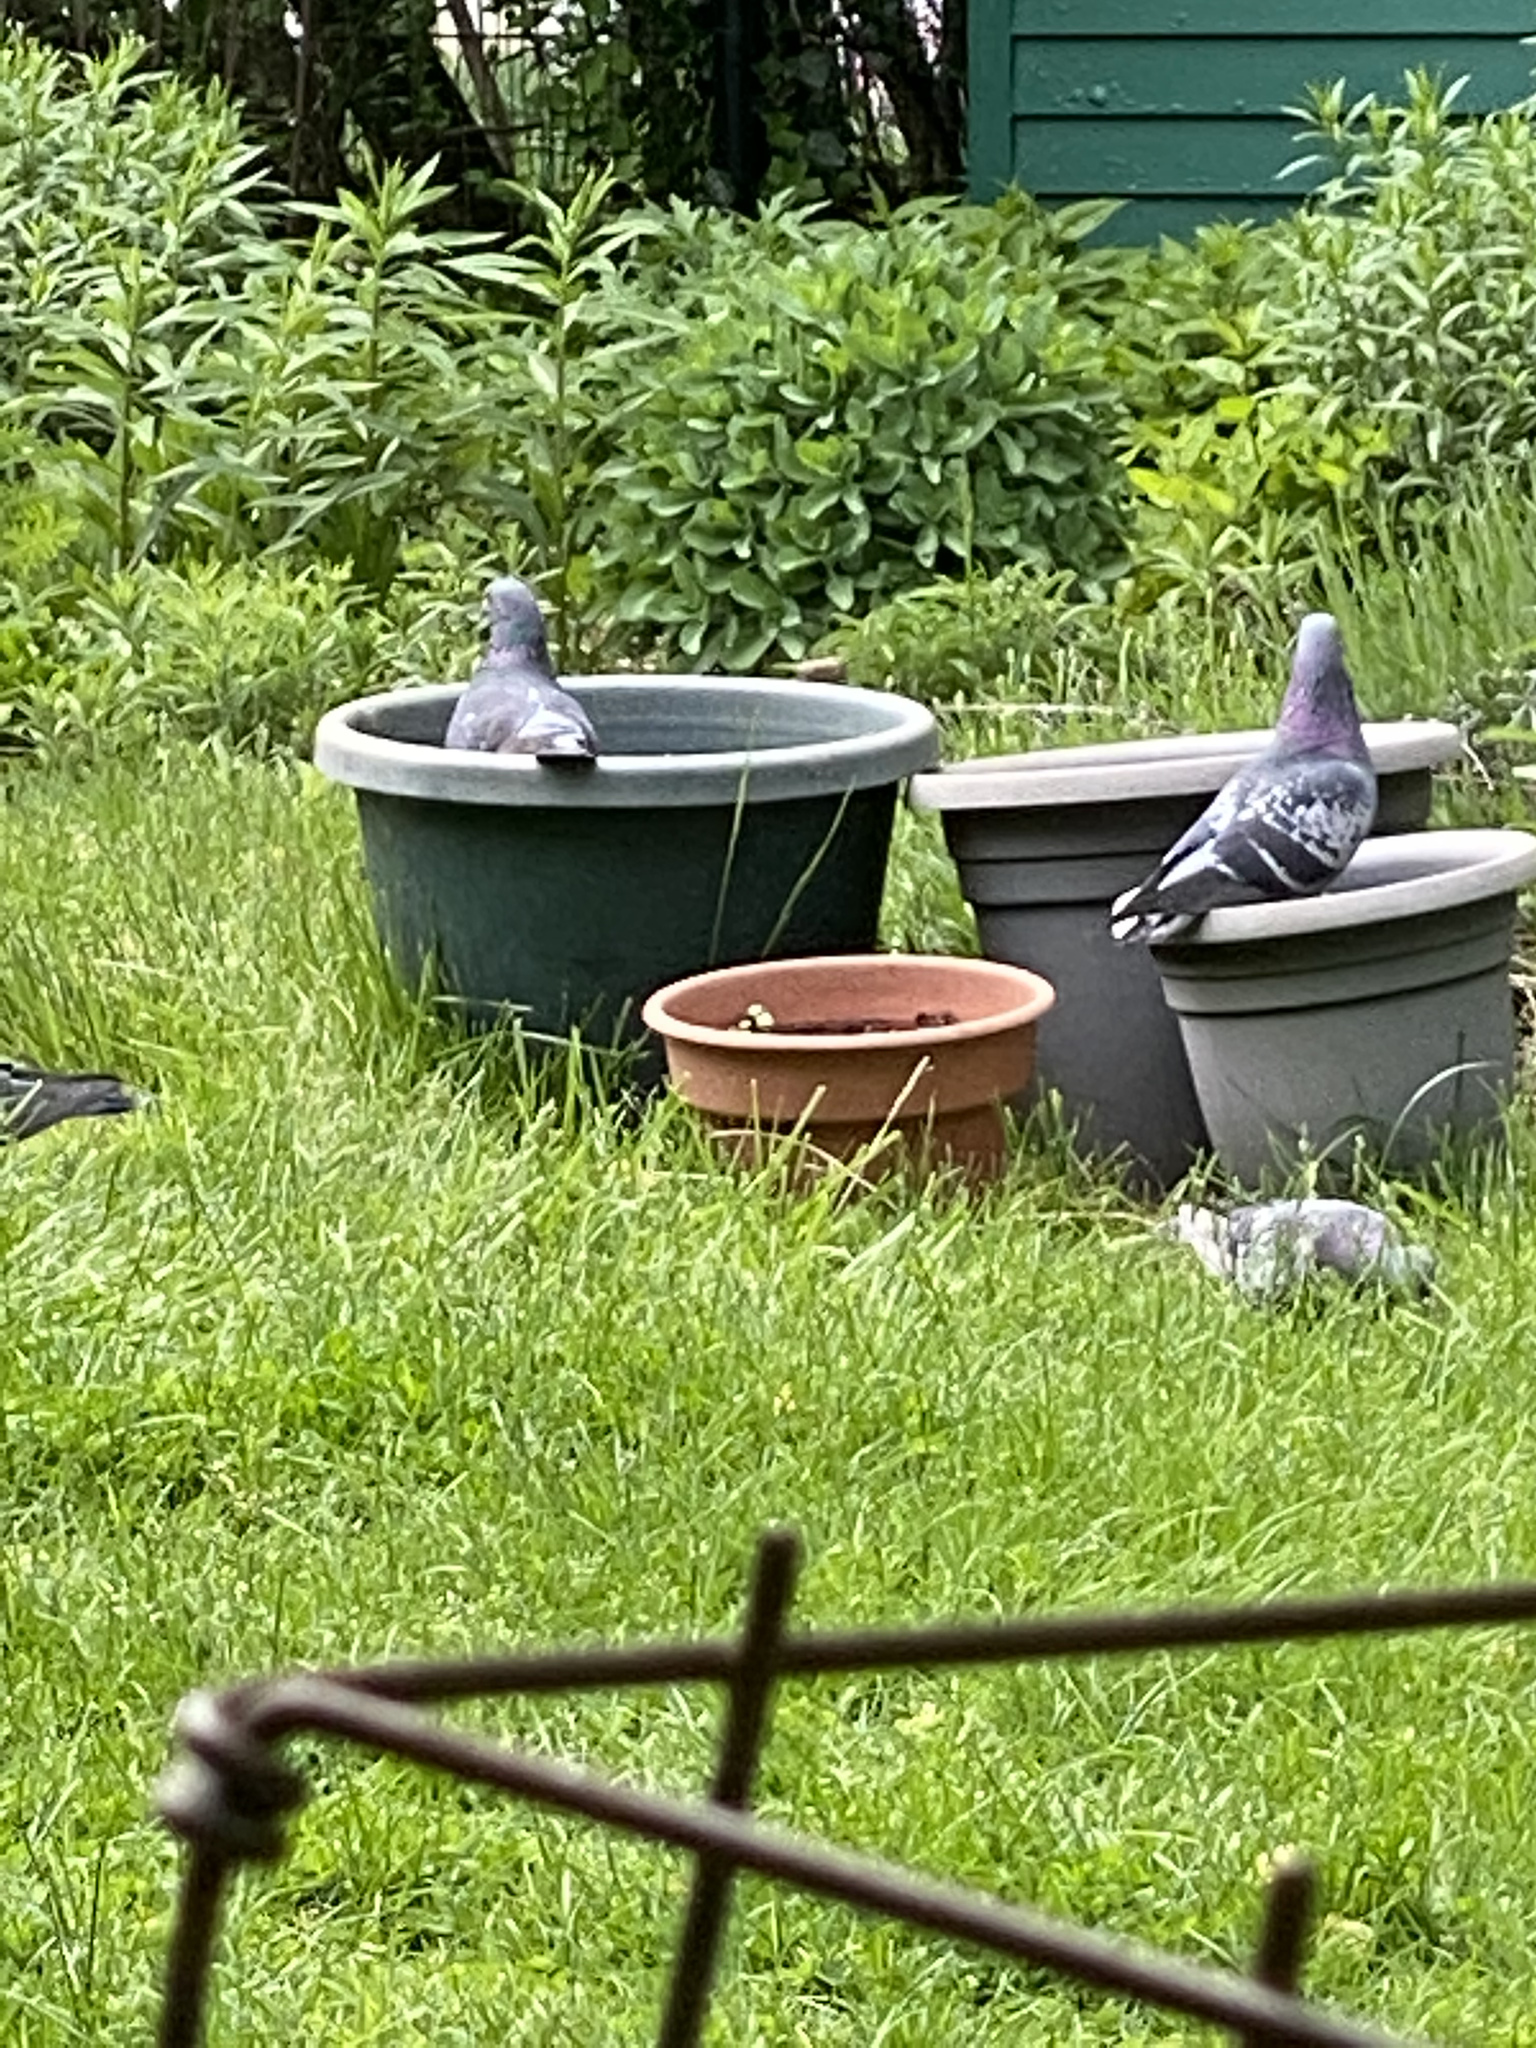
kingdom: Animalia
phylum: Chordata
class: Aves
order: Columbiformes
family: Columbidae
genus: Columba
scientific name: Columba livia
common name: Rock pigeon
